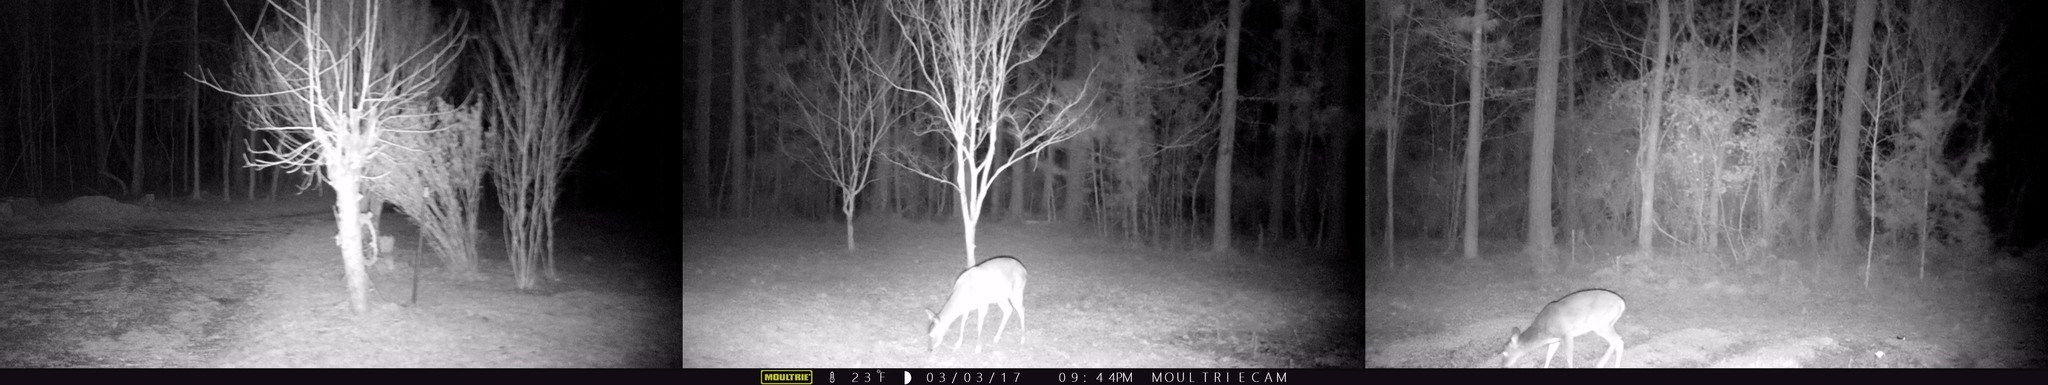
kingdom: Animalia
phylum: Chordata
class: Mammalia
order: Artiodactyla
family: Cervidae
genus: Odocoileus
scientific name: Odocoileus virginianus
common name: White-tailed deer
